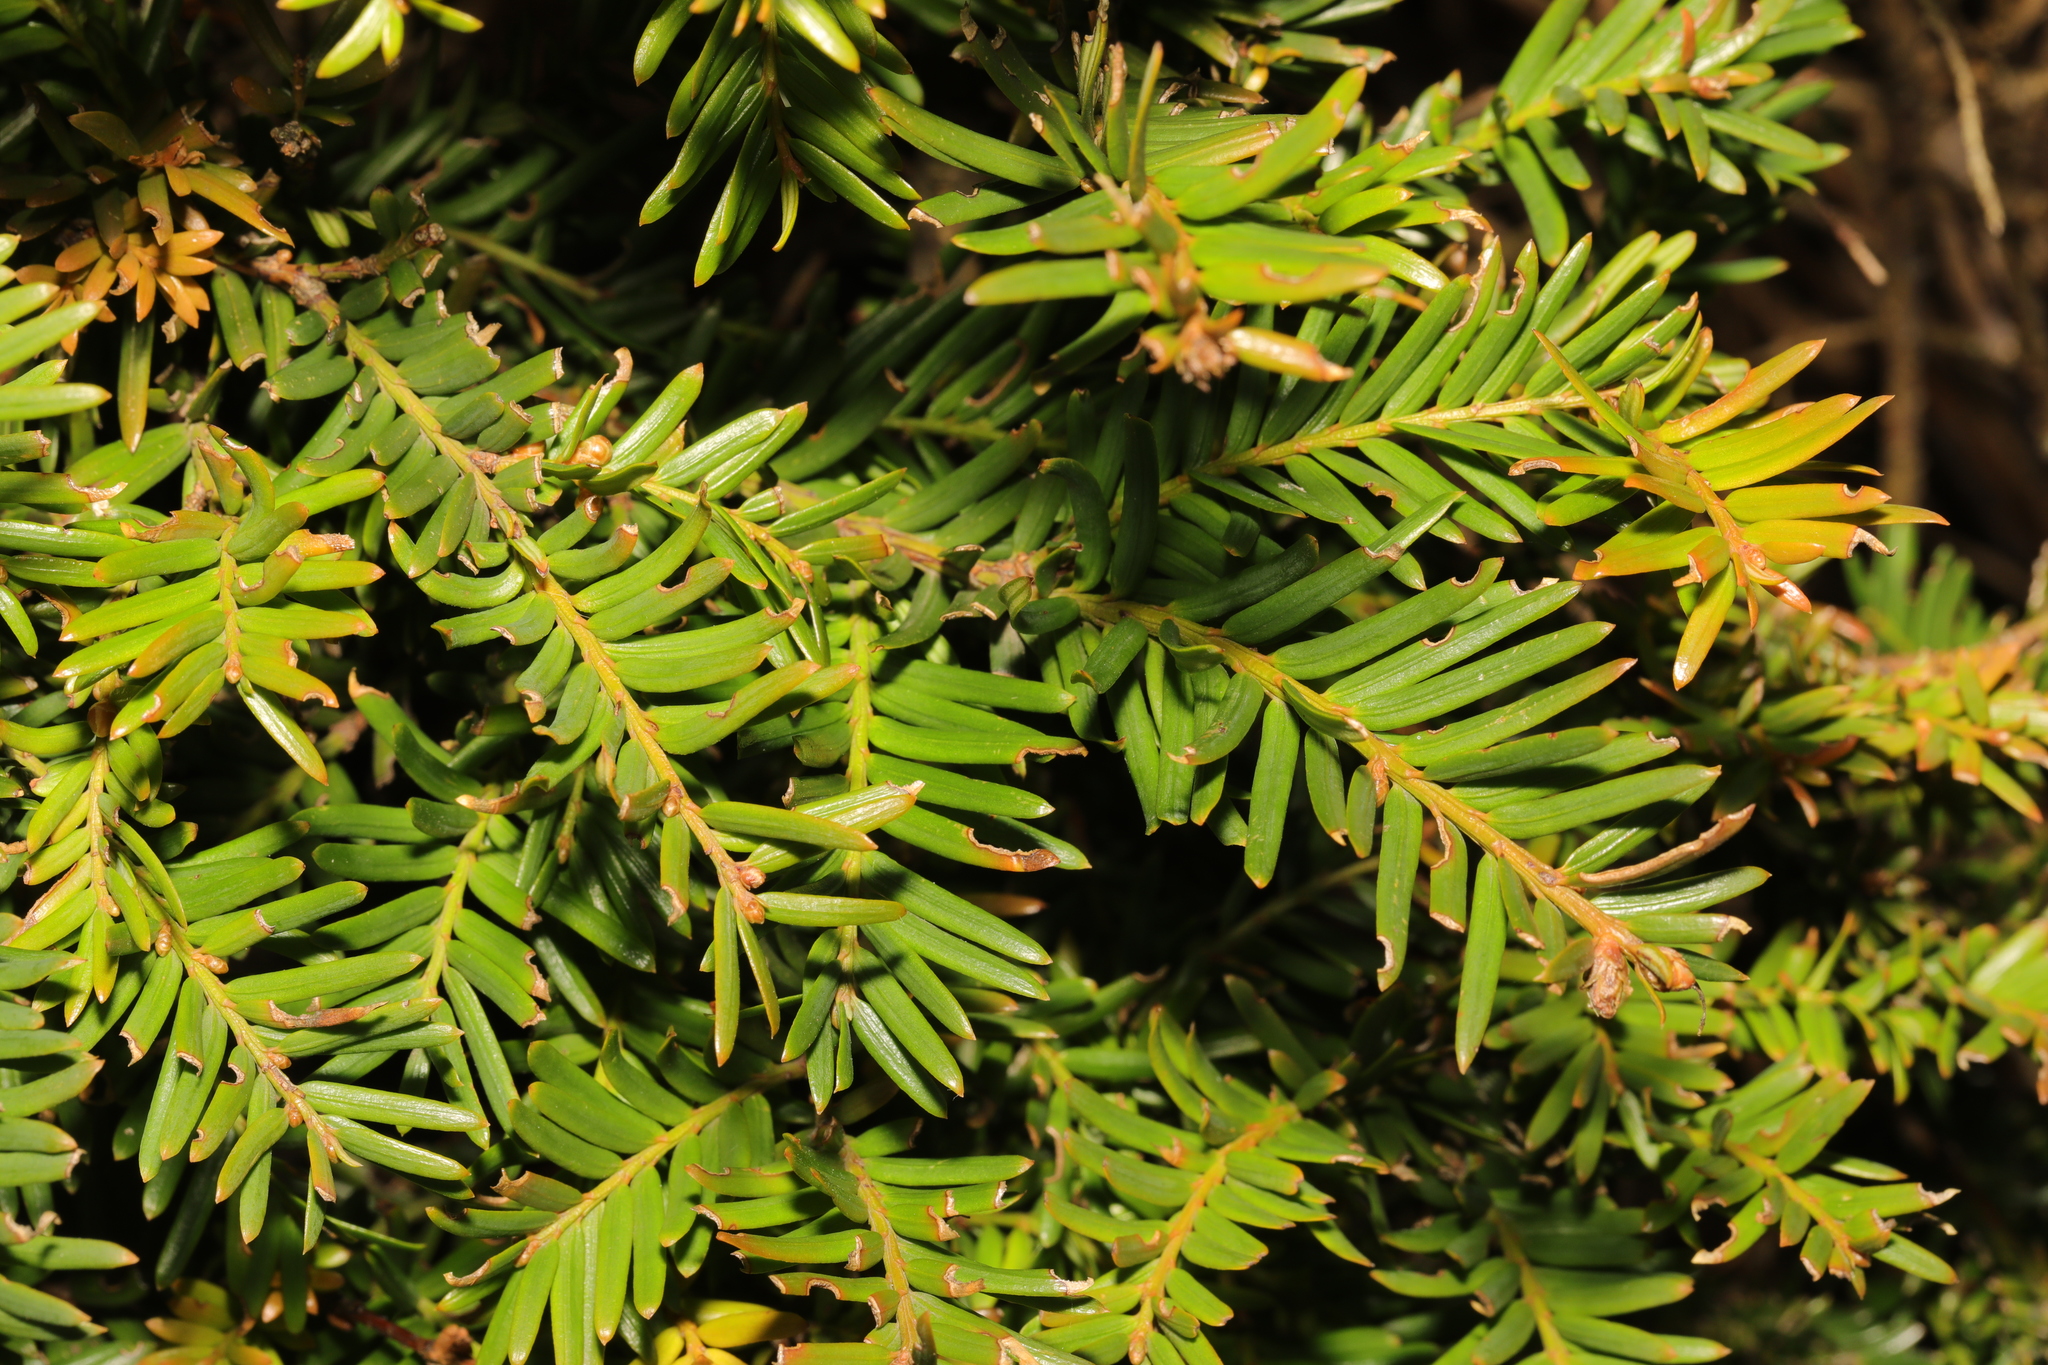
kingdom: Plantae
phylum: Tracheophyta
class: Pinopsida
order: Pinales
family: Taxaceae
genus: Taxus
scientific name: Taxus baccata
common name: Yew
